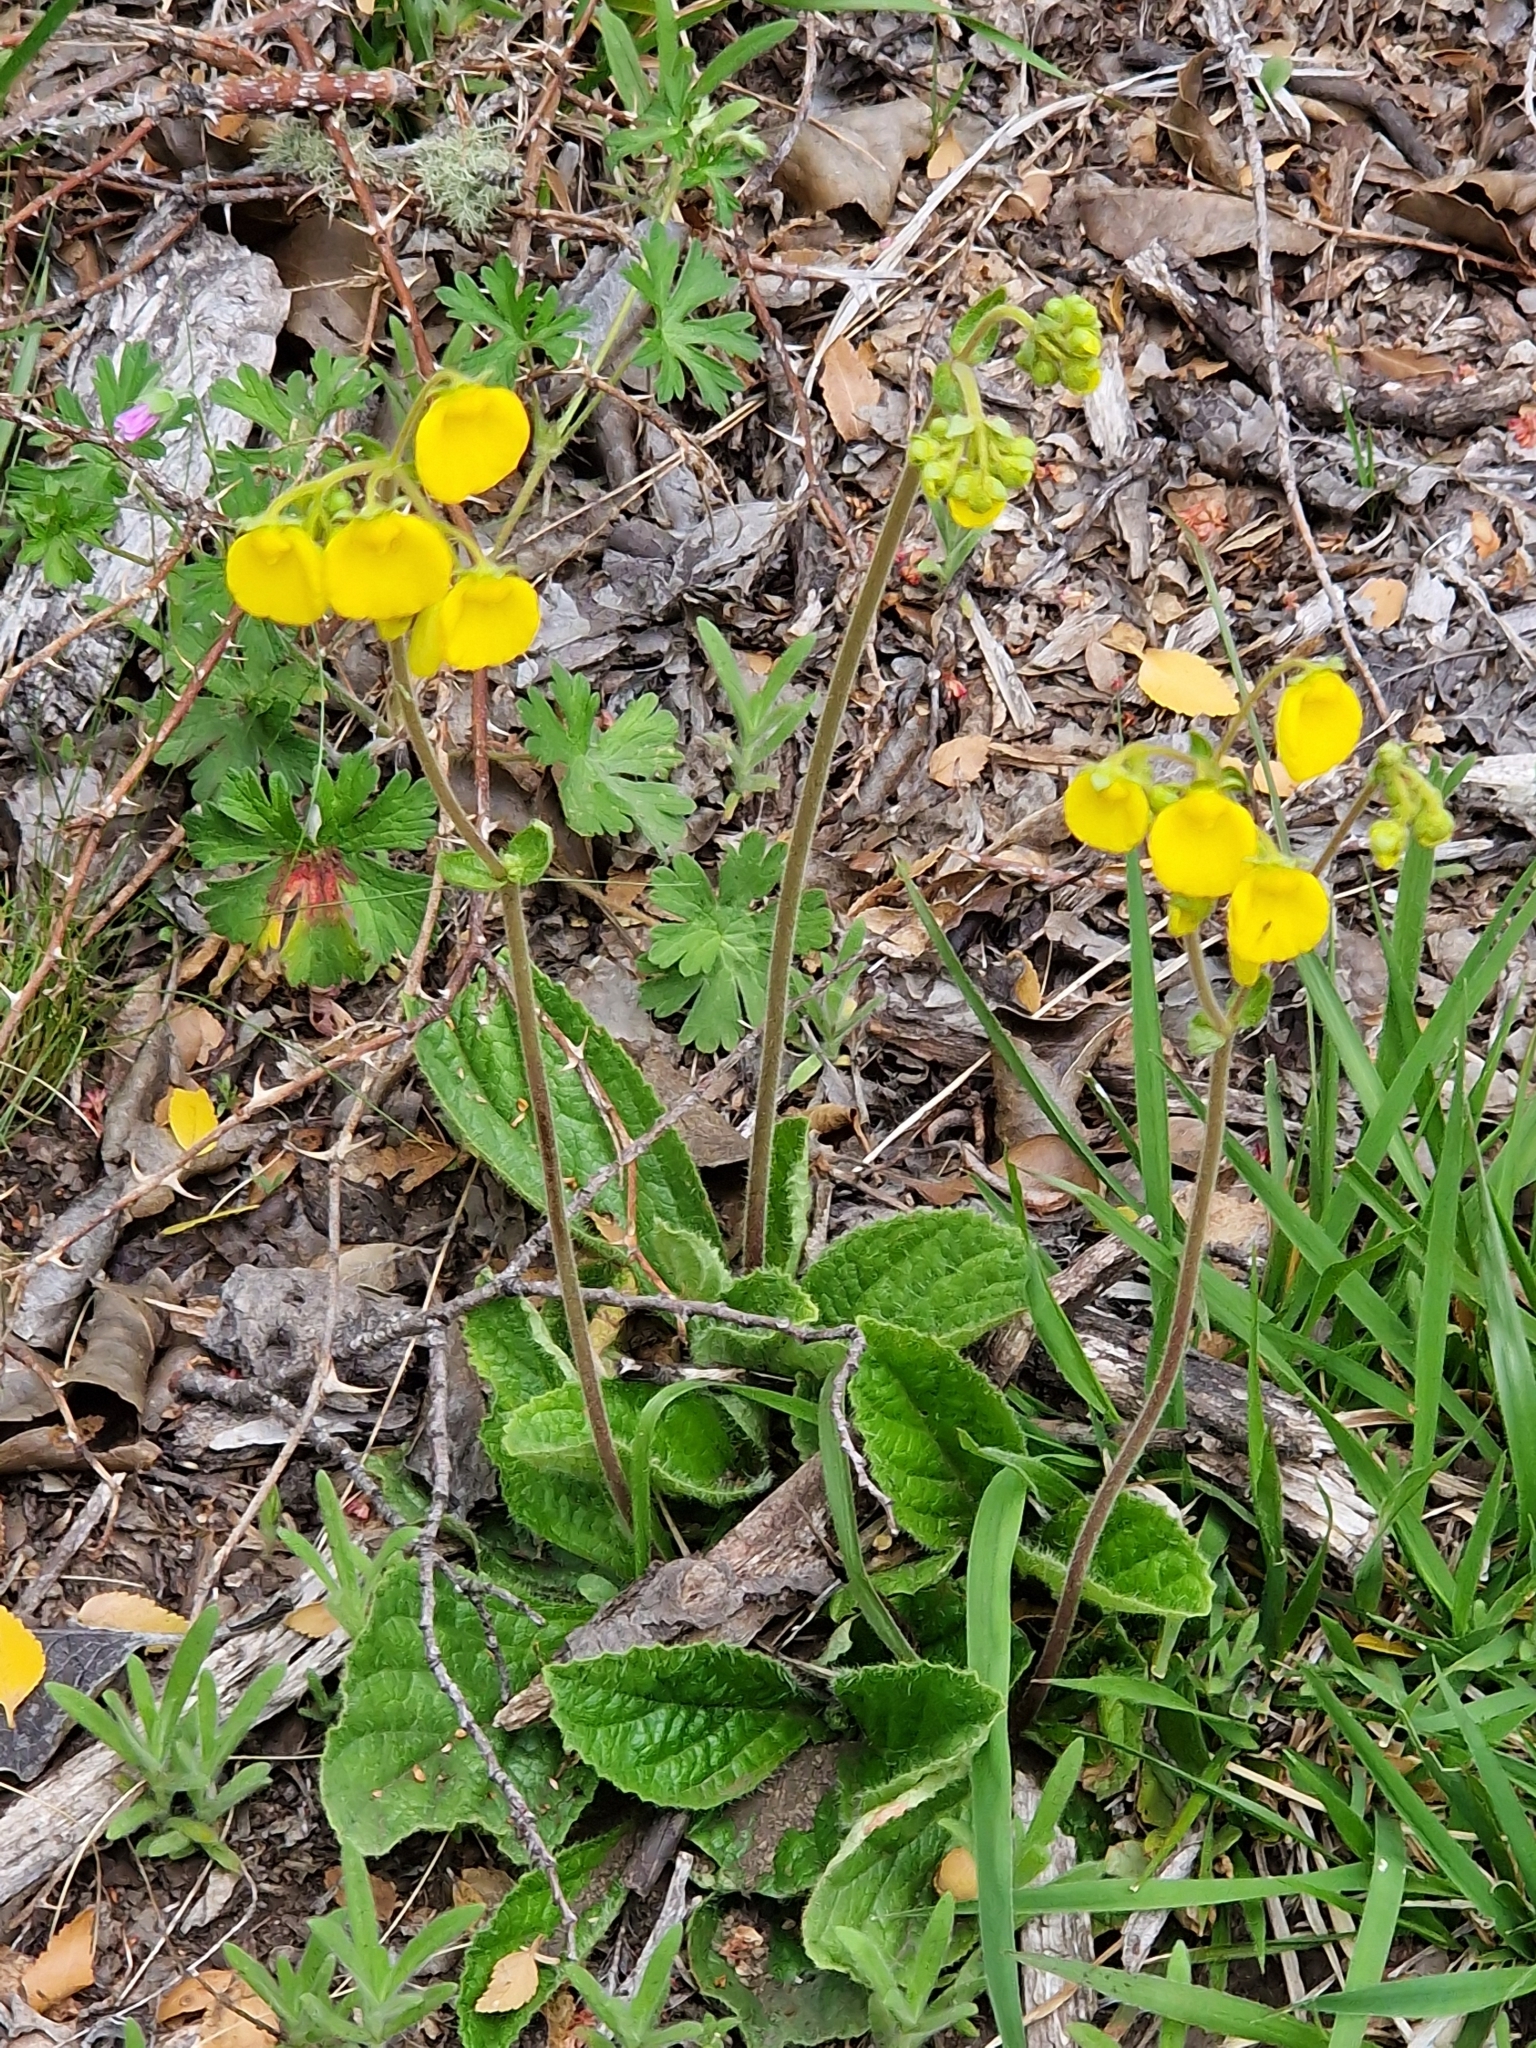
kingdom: Plantae
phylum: Tracheophyta
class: Magnoliopsida
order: Lamiales
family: Calceolariaceae
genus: Calceolaria
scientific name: Calceolaria valdiviana
